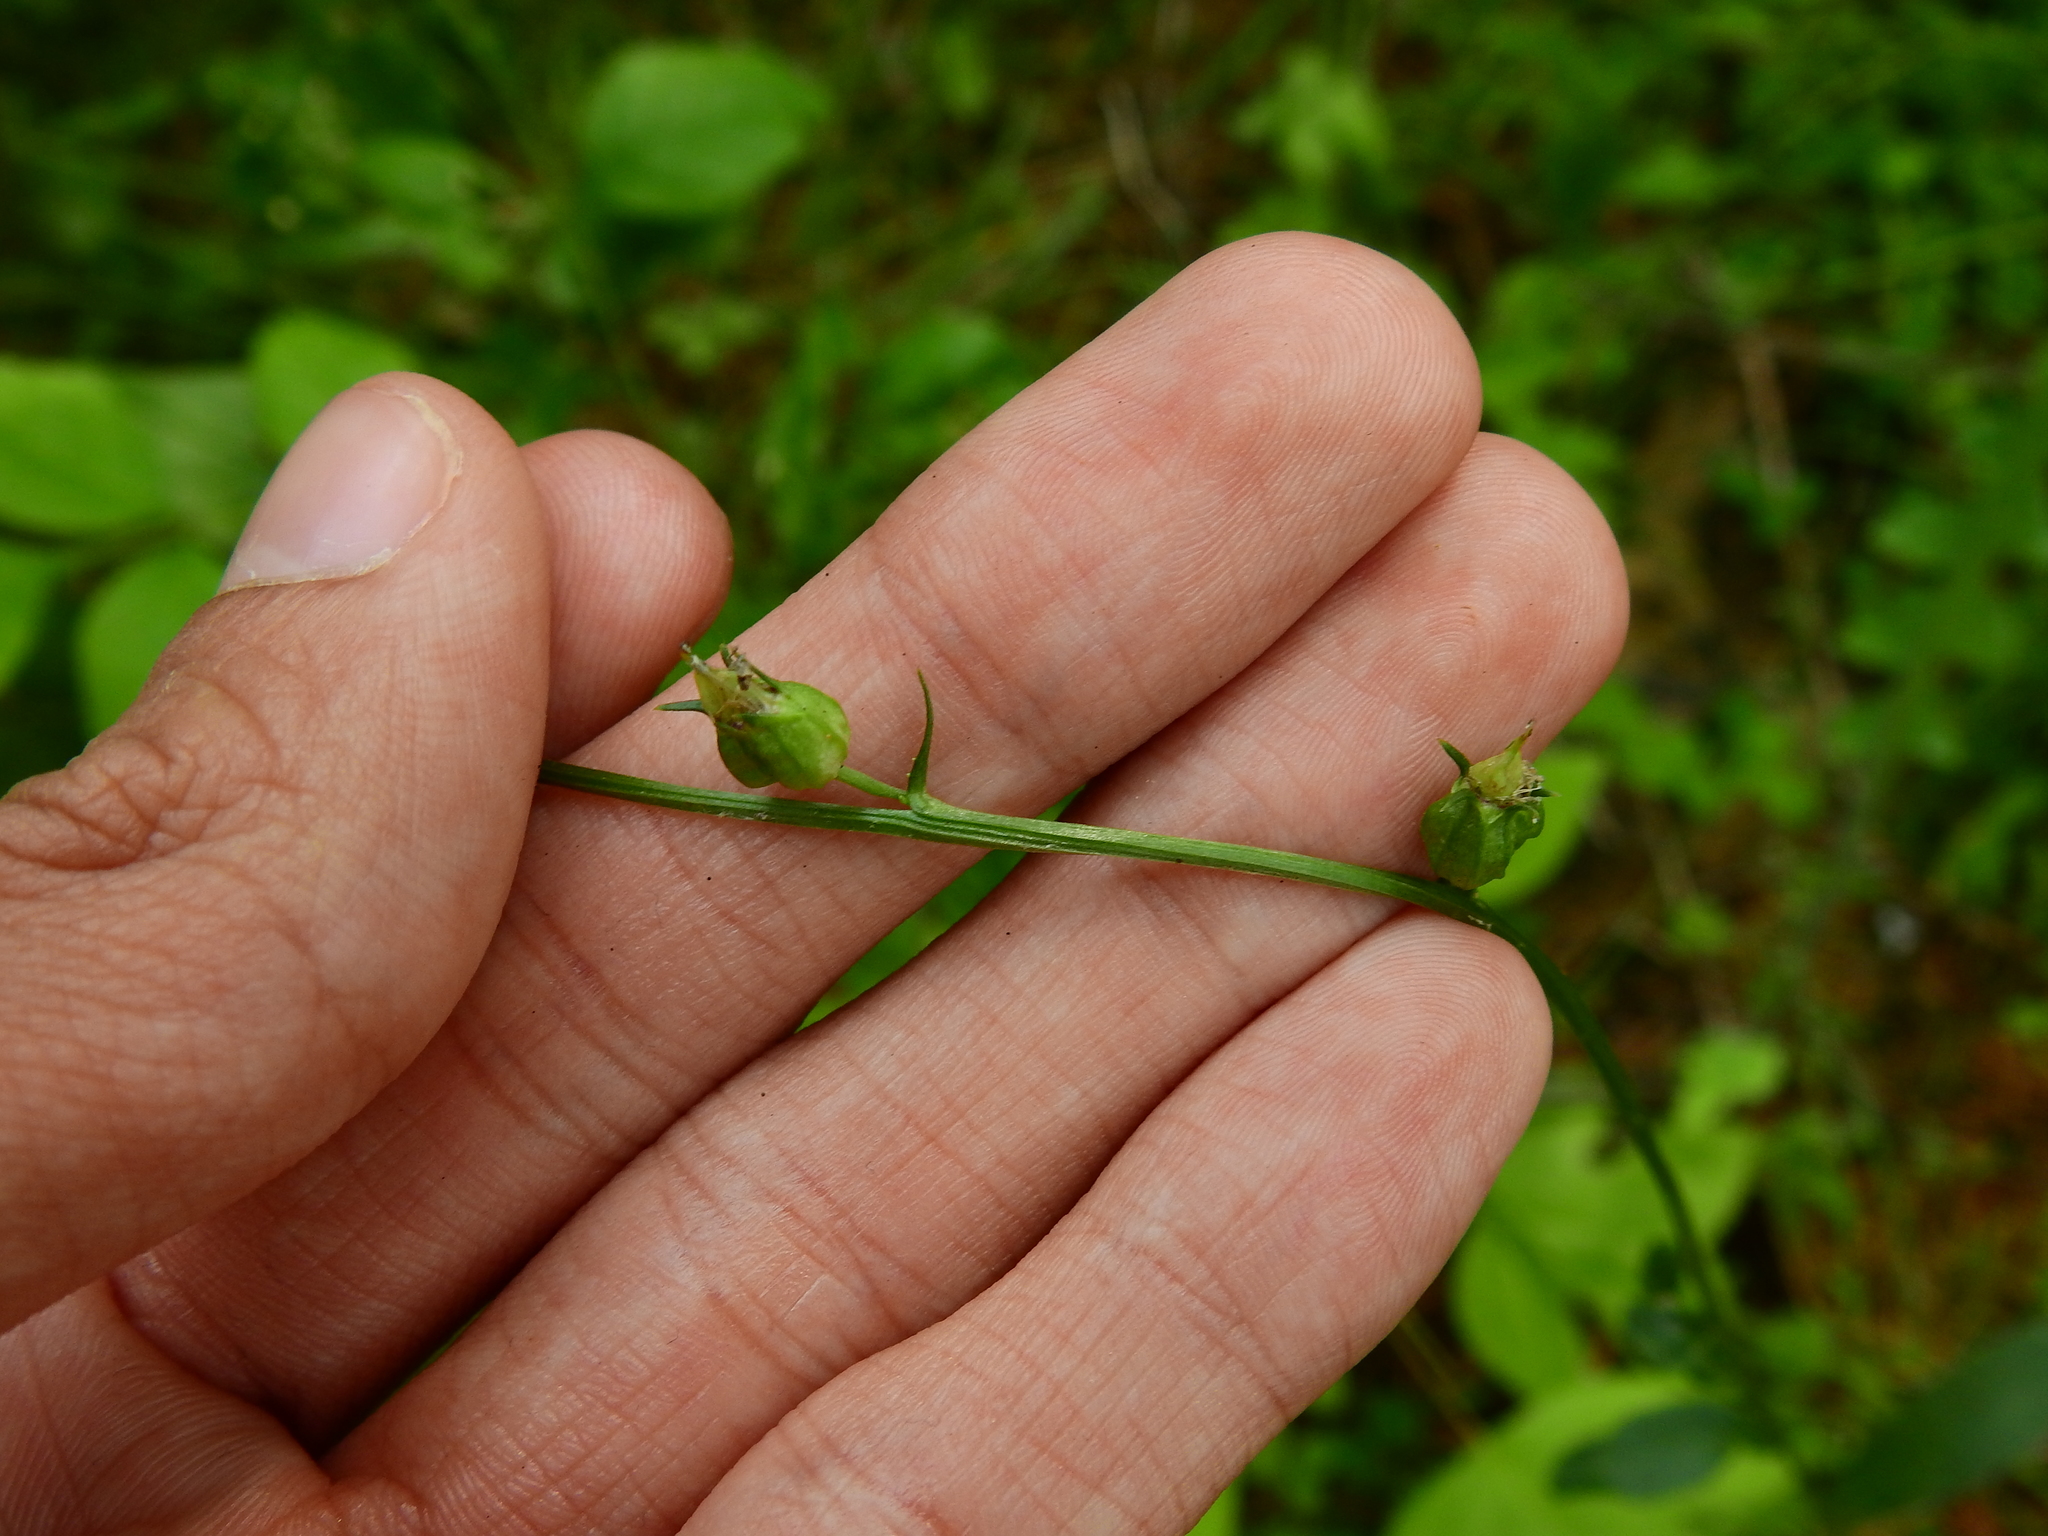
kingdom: Plantae
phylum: Tracheophyta
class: Magnoliopsida
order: Asterales
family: Campanulaceae
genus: Lobelia
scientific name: Lobelia inflata
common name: Indian tobacco
